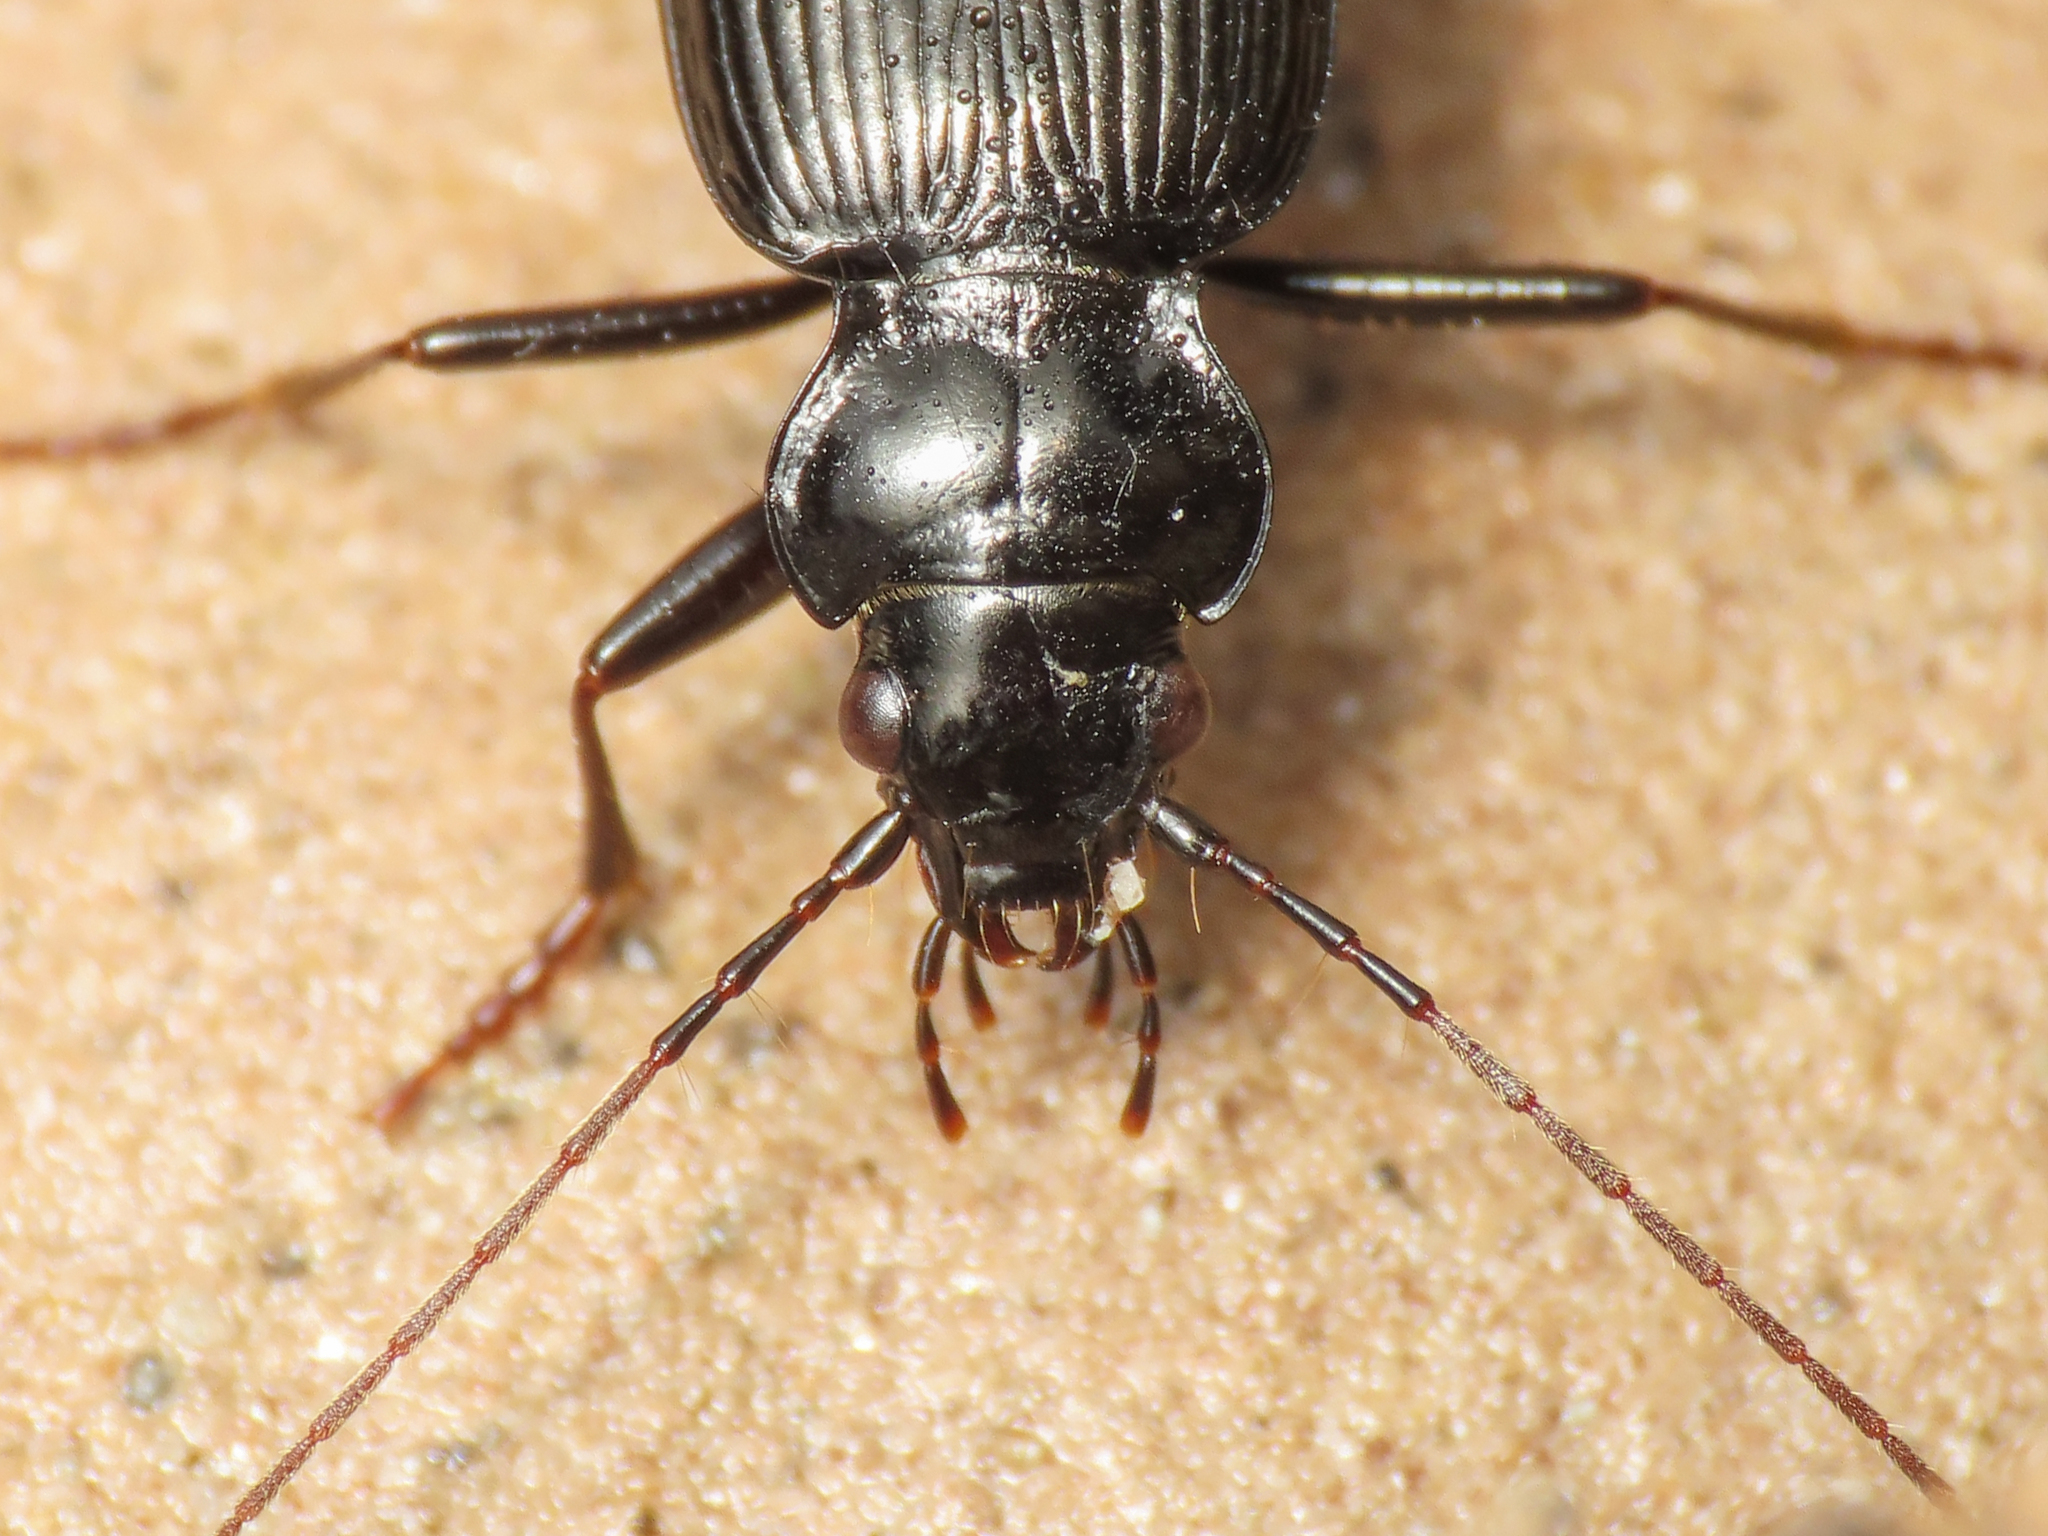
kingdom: Animalia
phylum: Arthropoda
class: Insecta
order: Coleoptera
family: Carabidae
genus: Nebria
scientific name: Nebria jockischii
